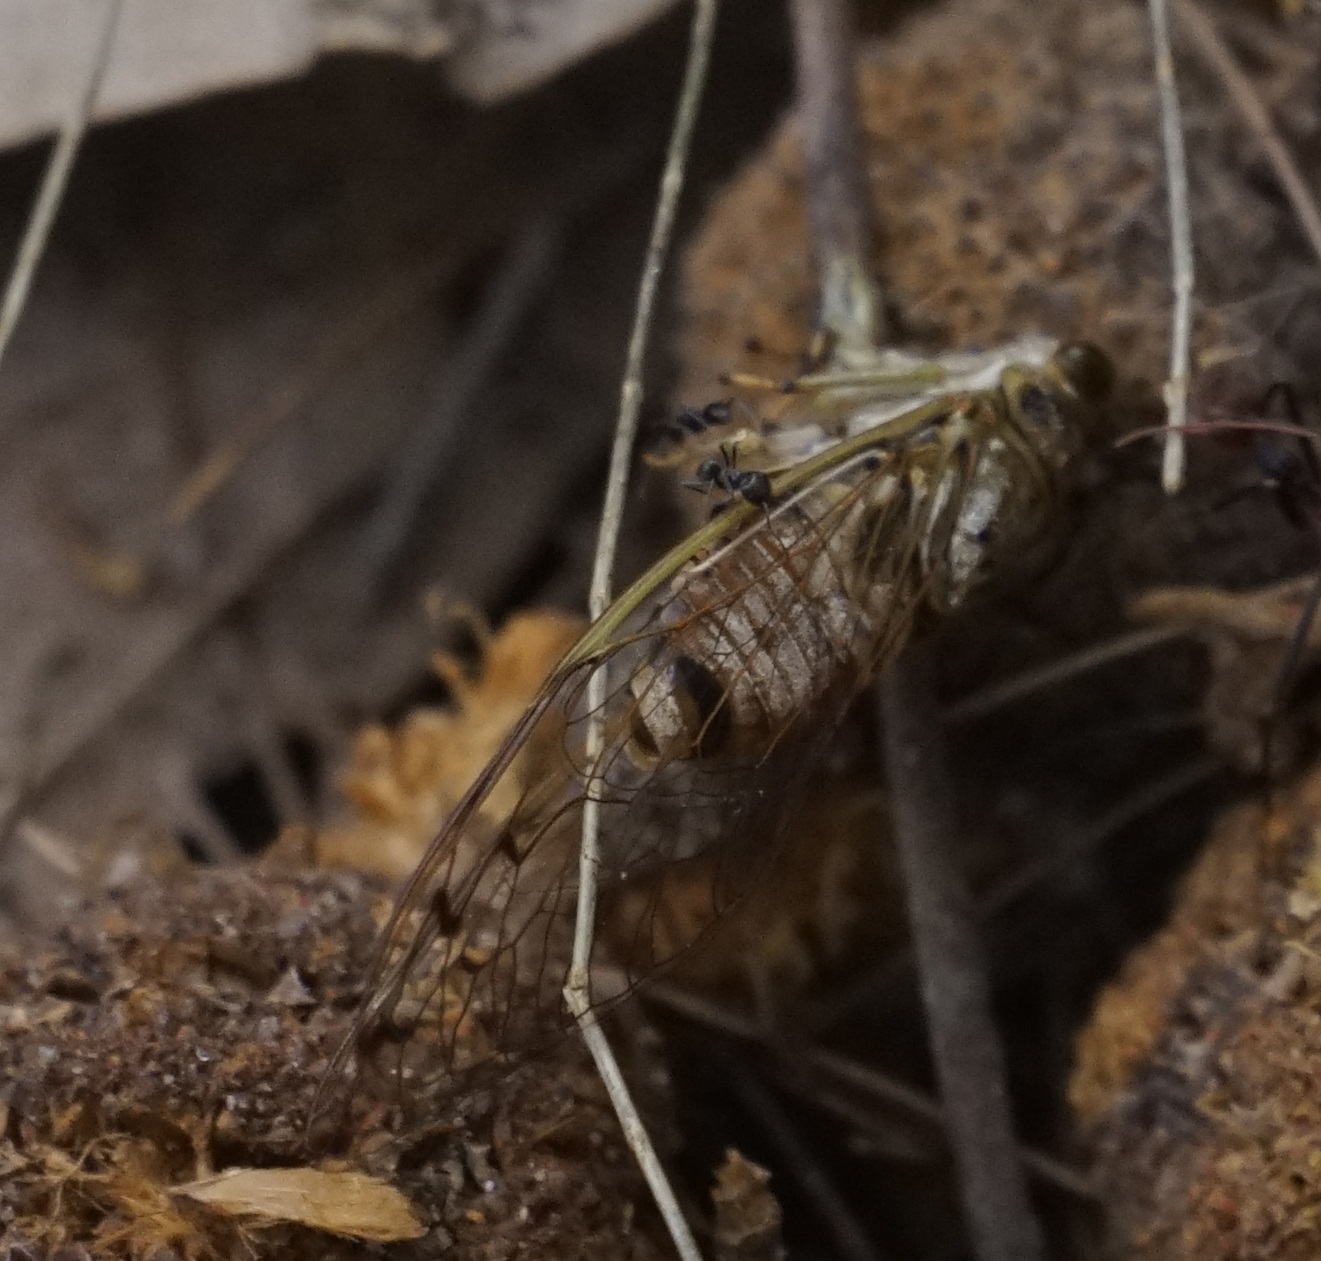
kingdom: Animalia
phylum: Arthropoda
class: Insecta
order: Hemiptera
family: Cicadidae
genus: Tamasa
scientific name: Tamasa tristigma
